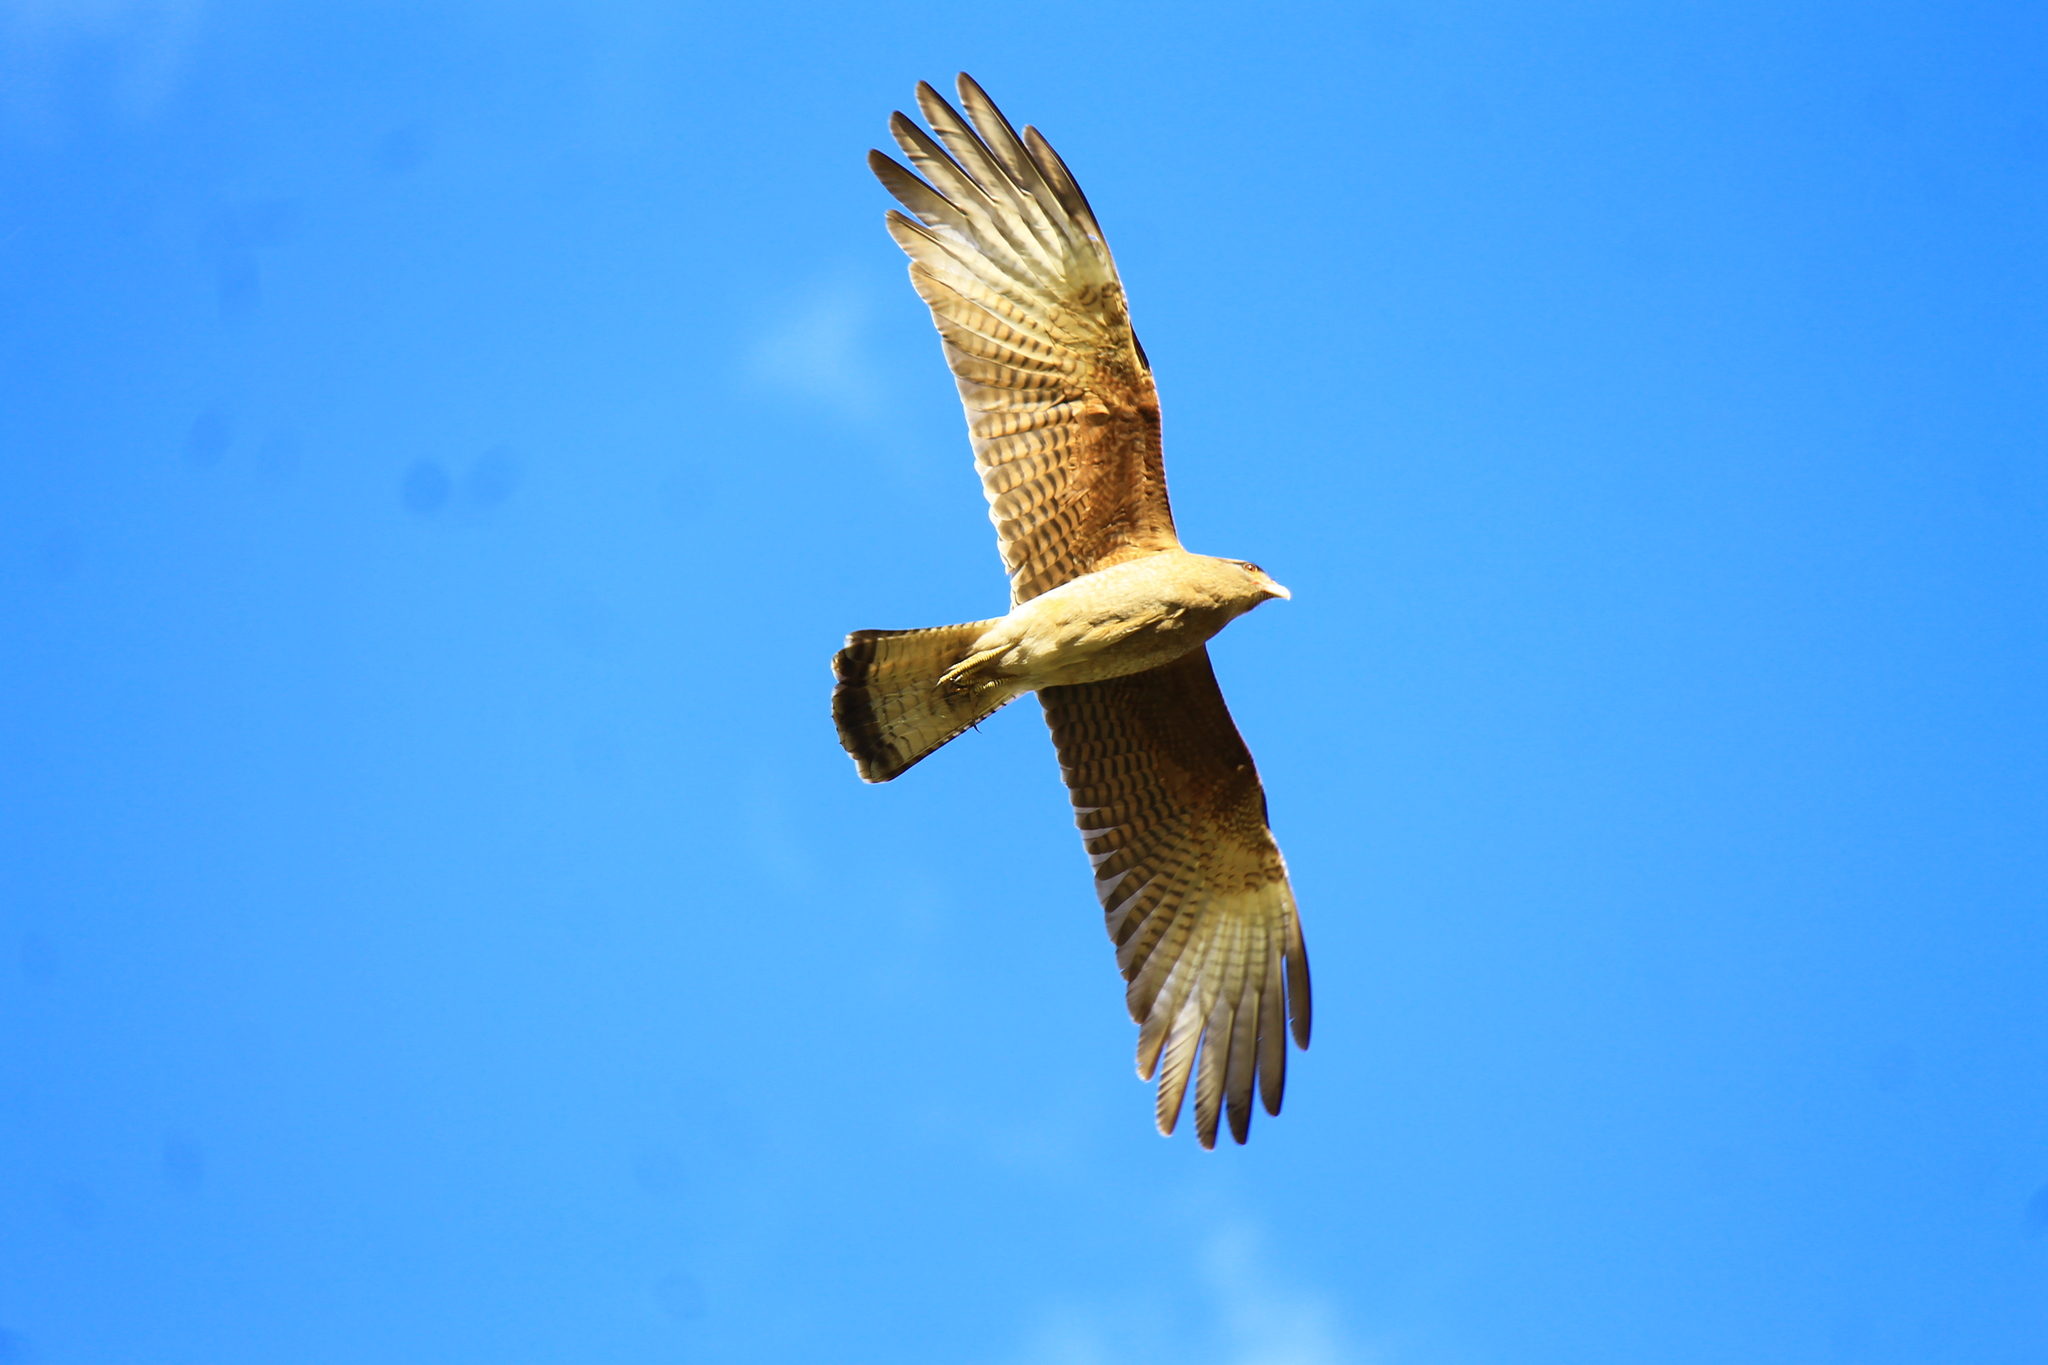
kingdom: Animalia
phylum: Chordata
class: Aves
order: Falconiformes
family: Falconidae
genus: Daptrius
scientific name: Daptrius
